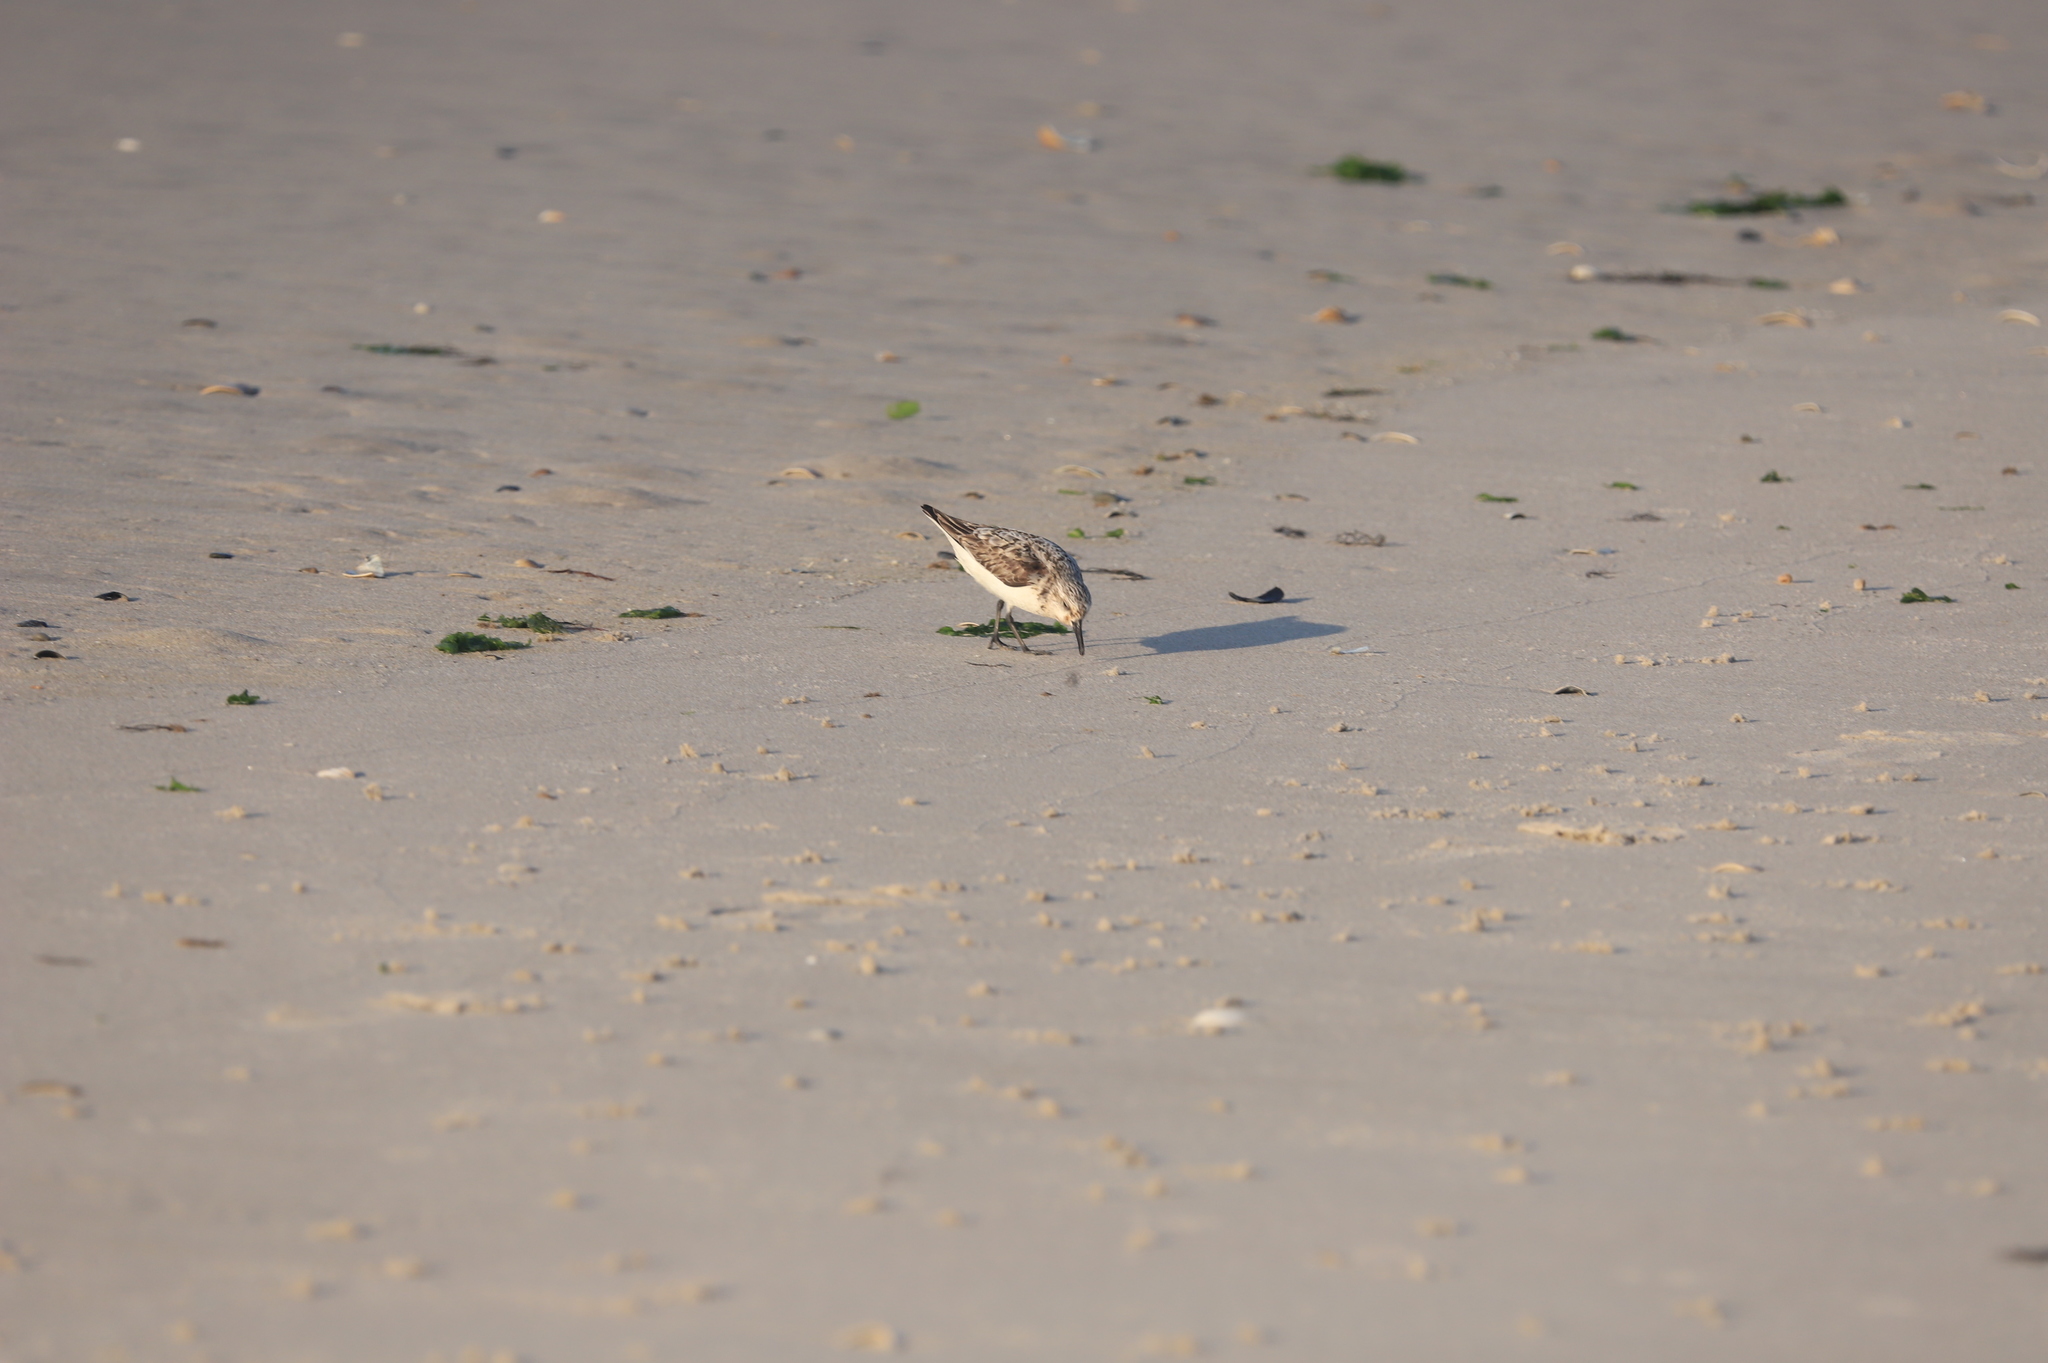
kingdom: Animalia
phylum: Chordata
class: Aves
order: Charadriiformes
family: Scolopacidae
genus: Calidris
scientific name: Calidris alba
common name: Sanderling
